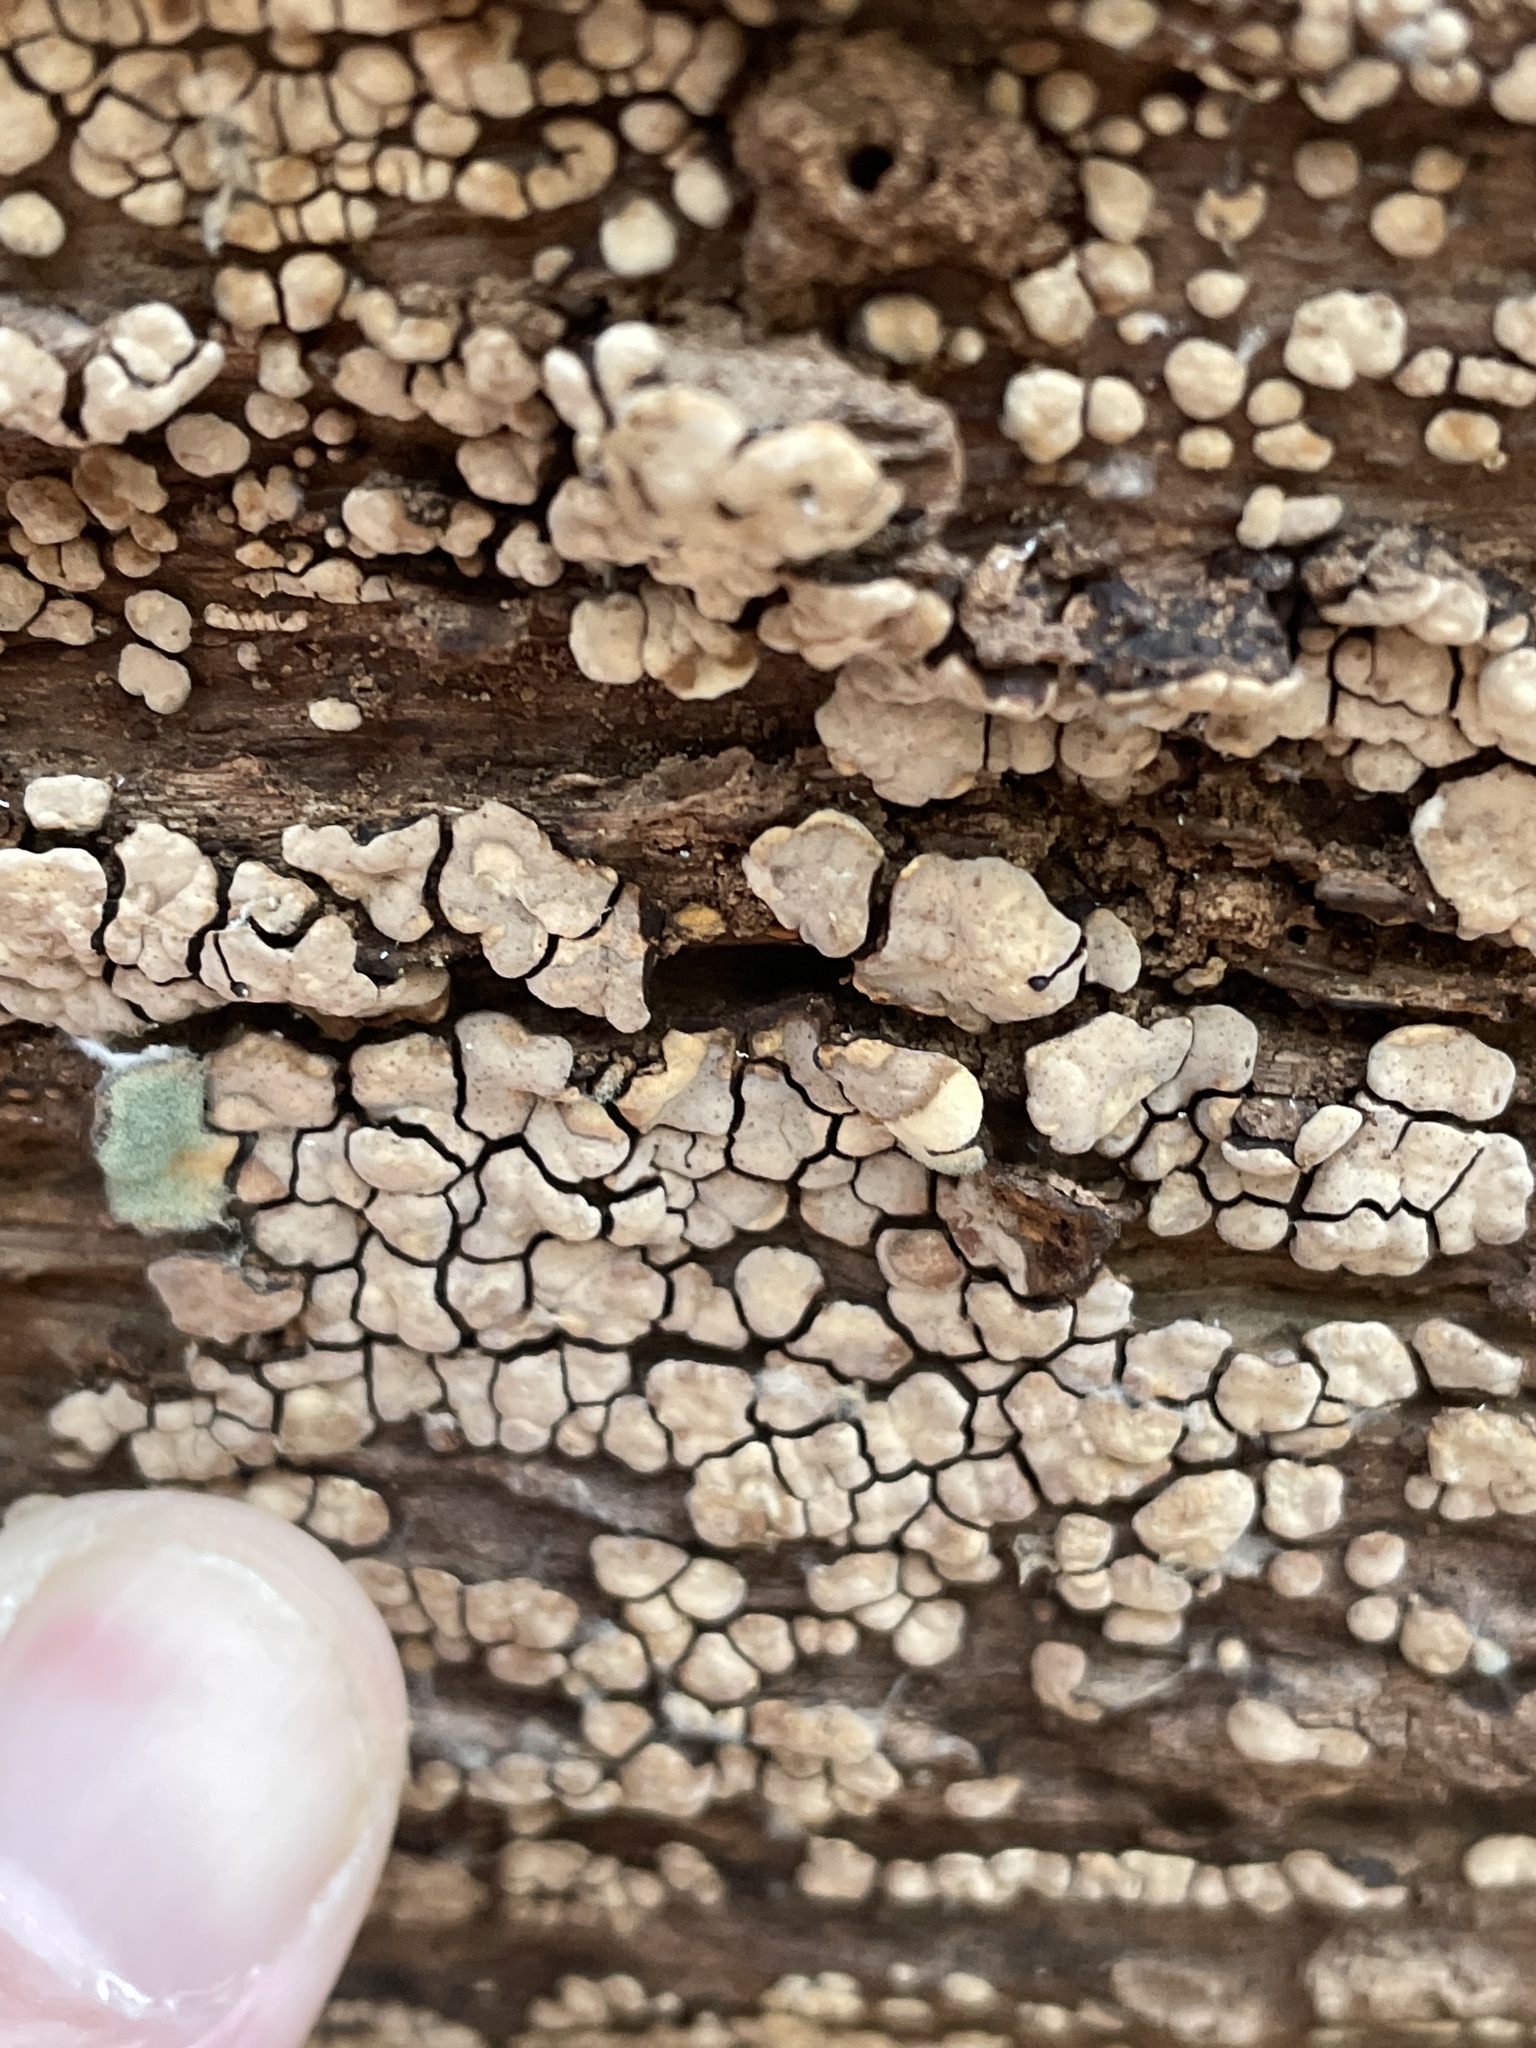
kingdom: Fungi
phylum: Basidiomycota
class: Agaricomycetes
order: Russulales
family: Stereaceae
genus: Xylobolus
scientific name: Xylobolus frustulatus
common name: Ceramic parchment
